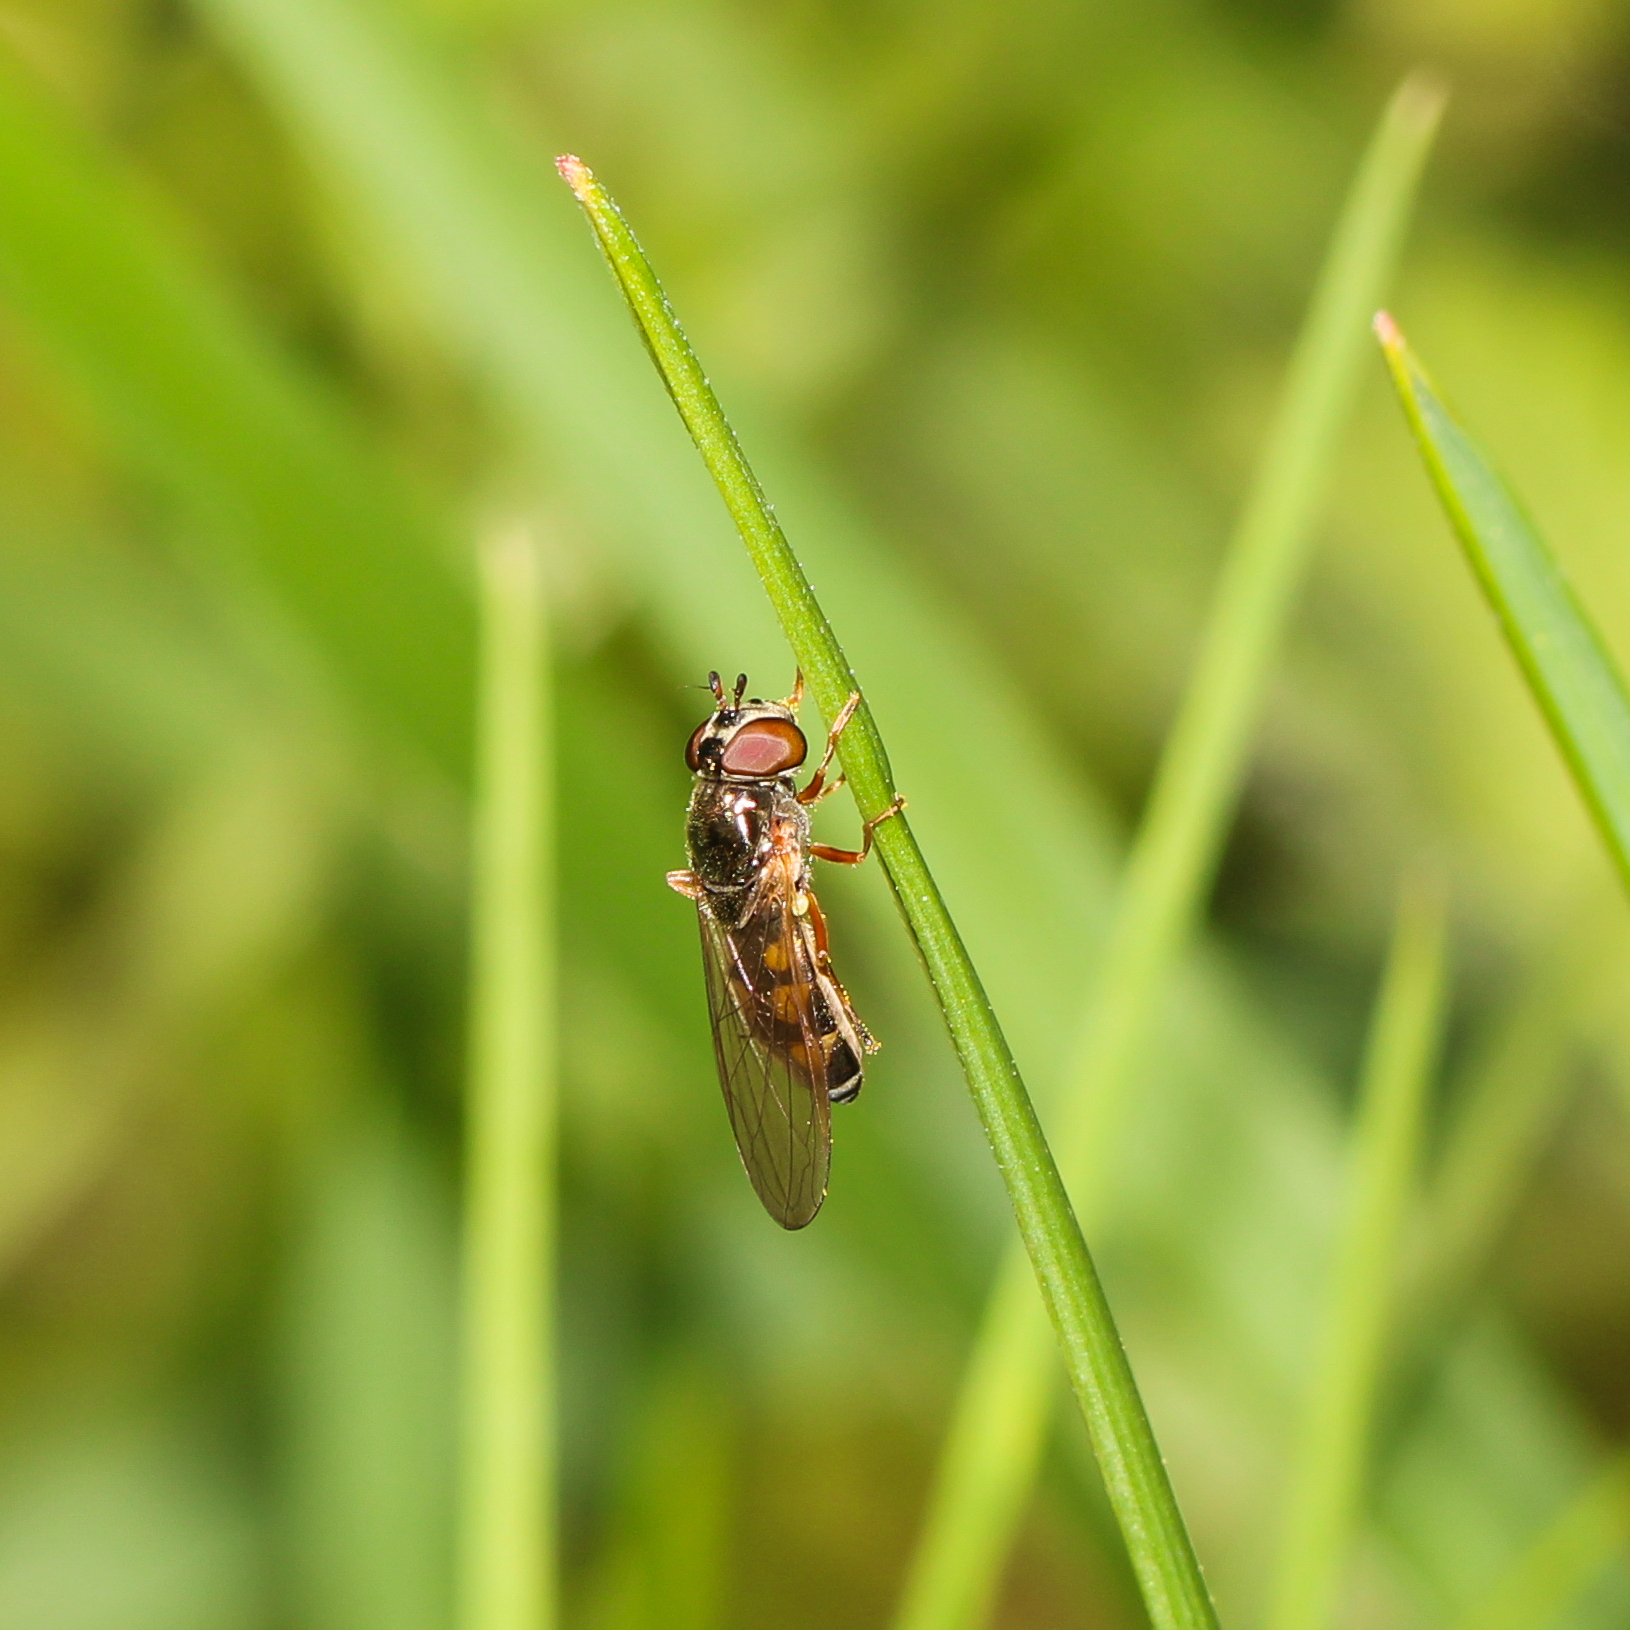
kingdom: Animalia
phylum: Arthropoda
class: Insecta
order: Diptera
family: Syrphidae
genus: Melanostoma
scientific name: Melanostoma mellina
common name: Hover fly
